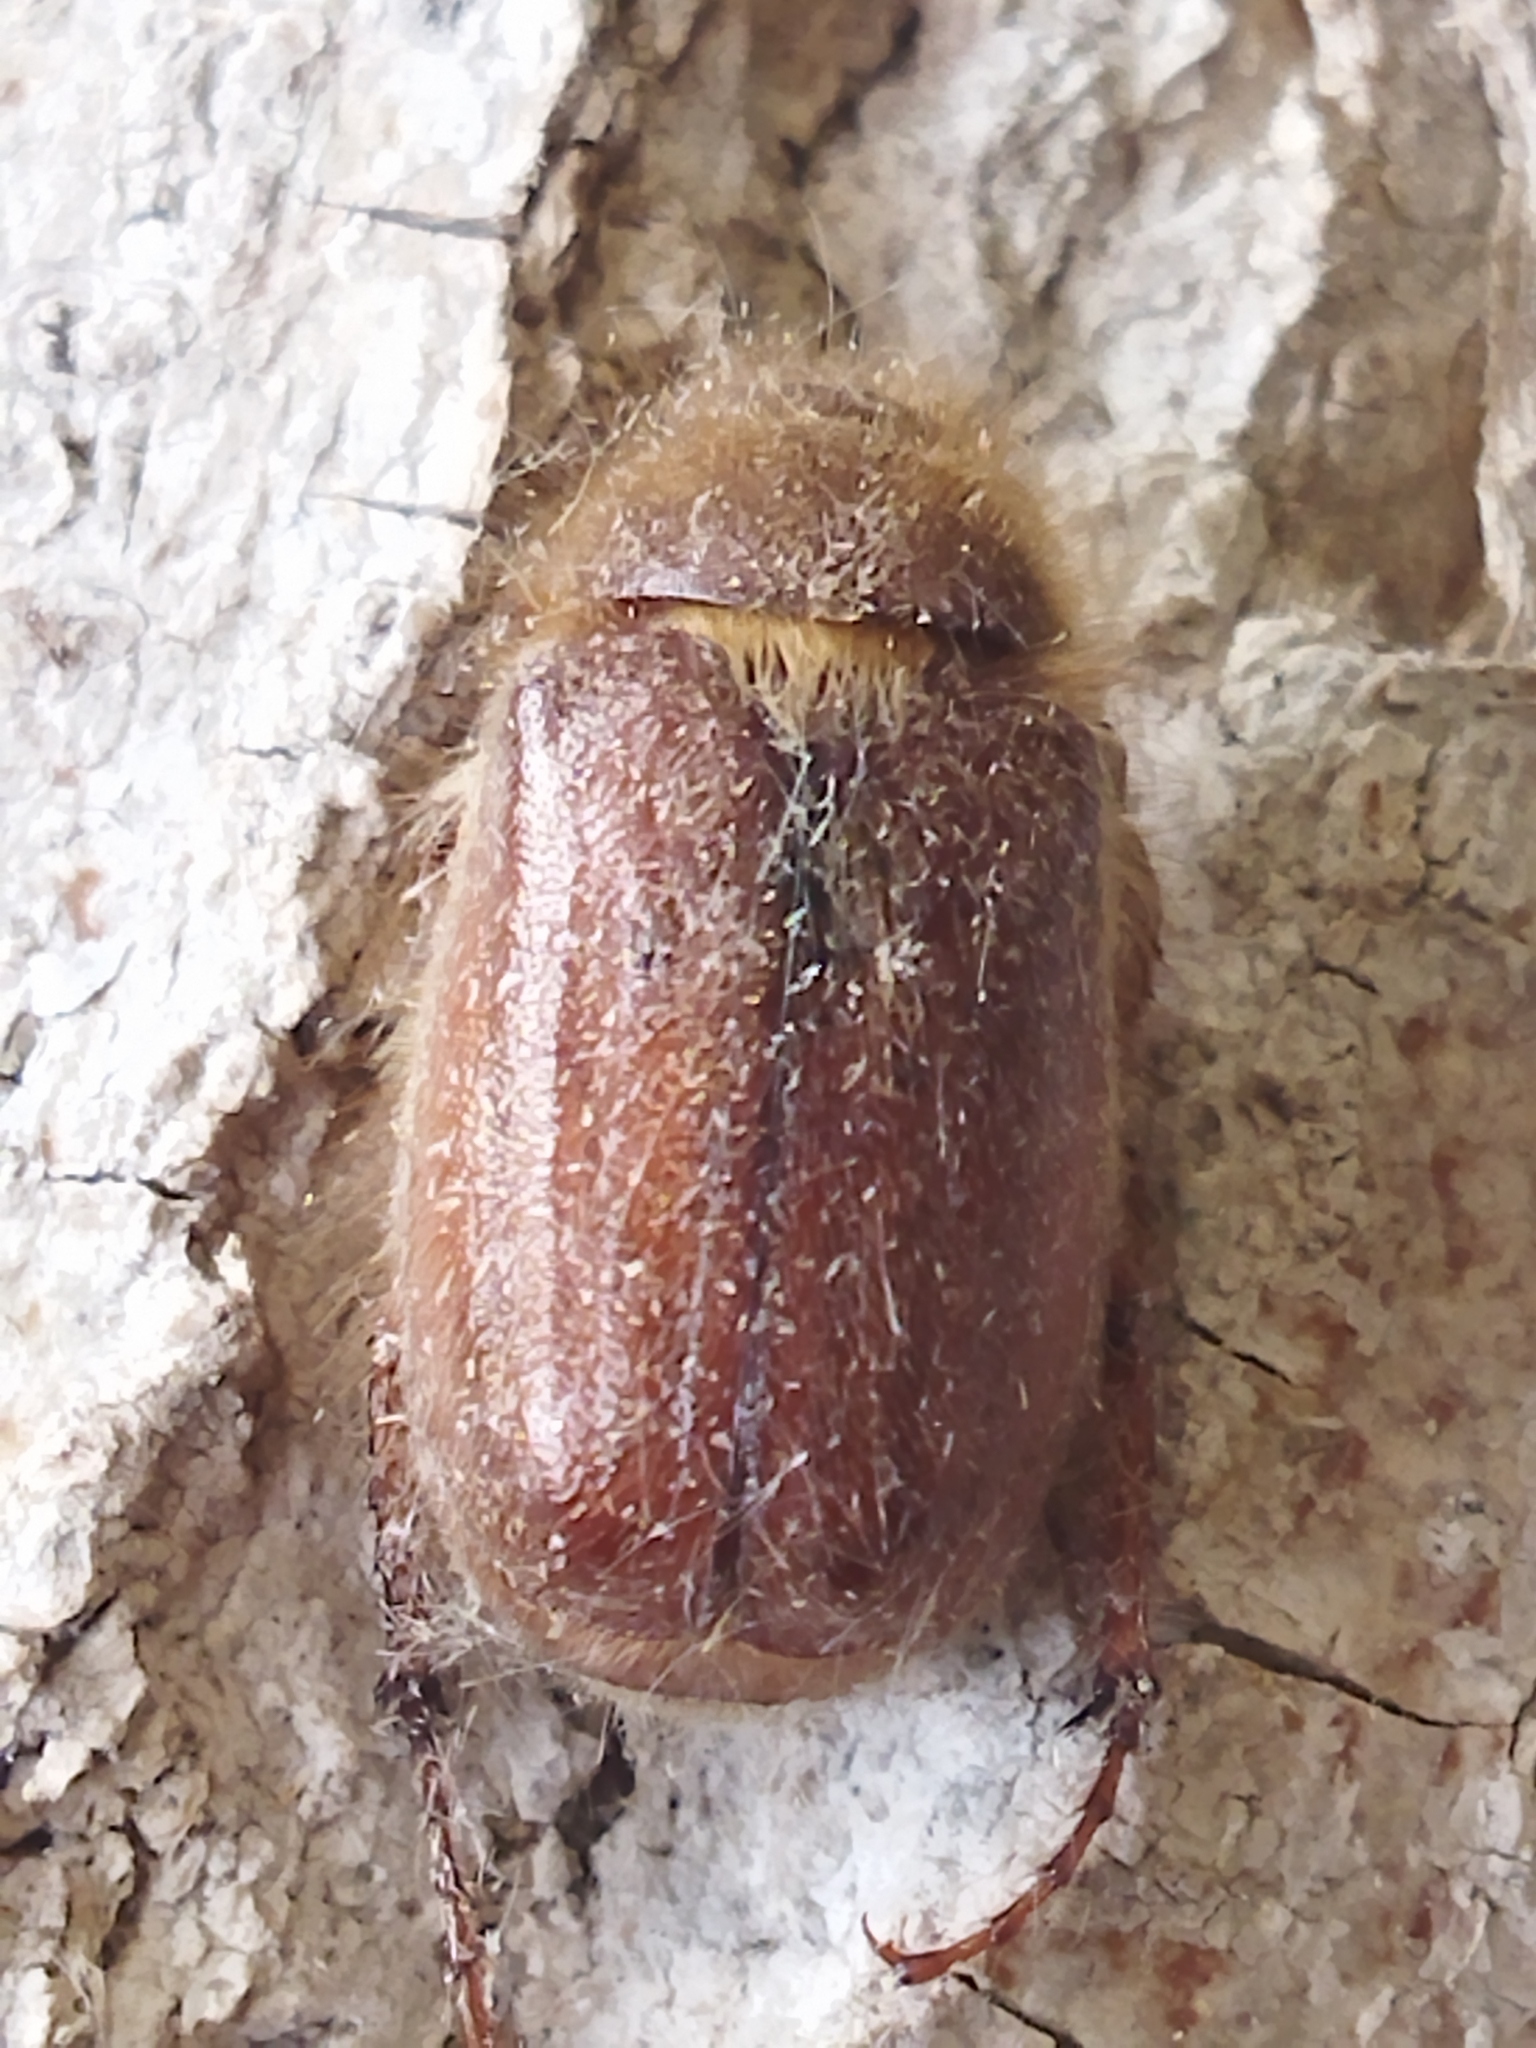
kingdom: Animalia
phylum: Arthropoda
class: Insecta
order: Coleoptera
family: Scarabaeidae
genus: Holochelus
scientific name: Holochelus aequinoctialis
